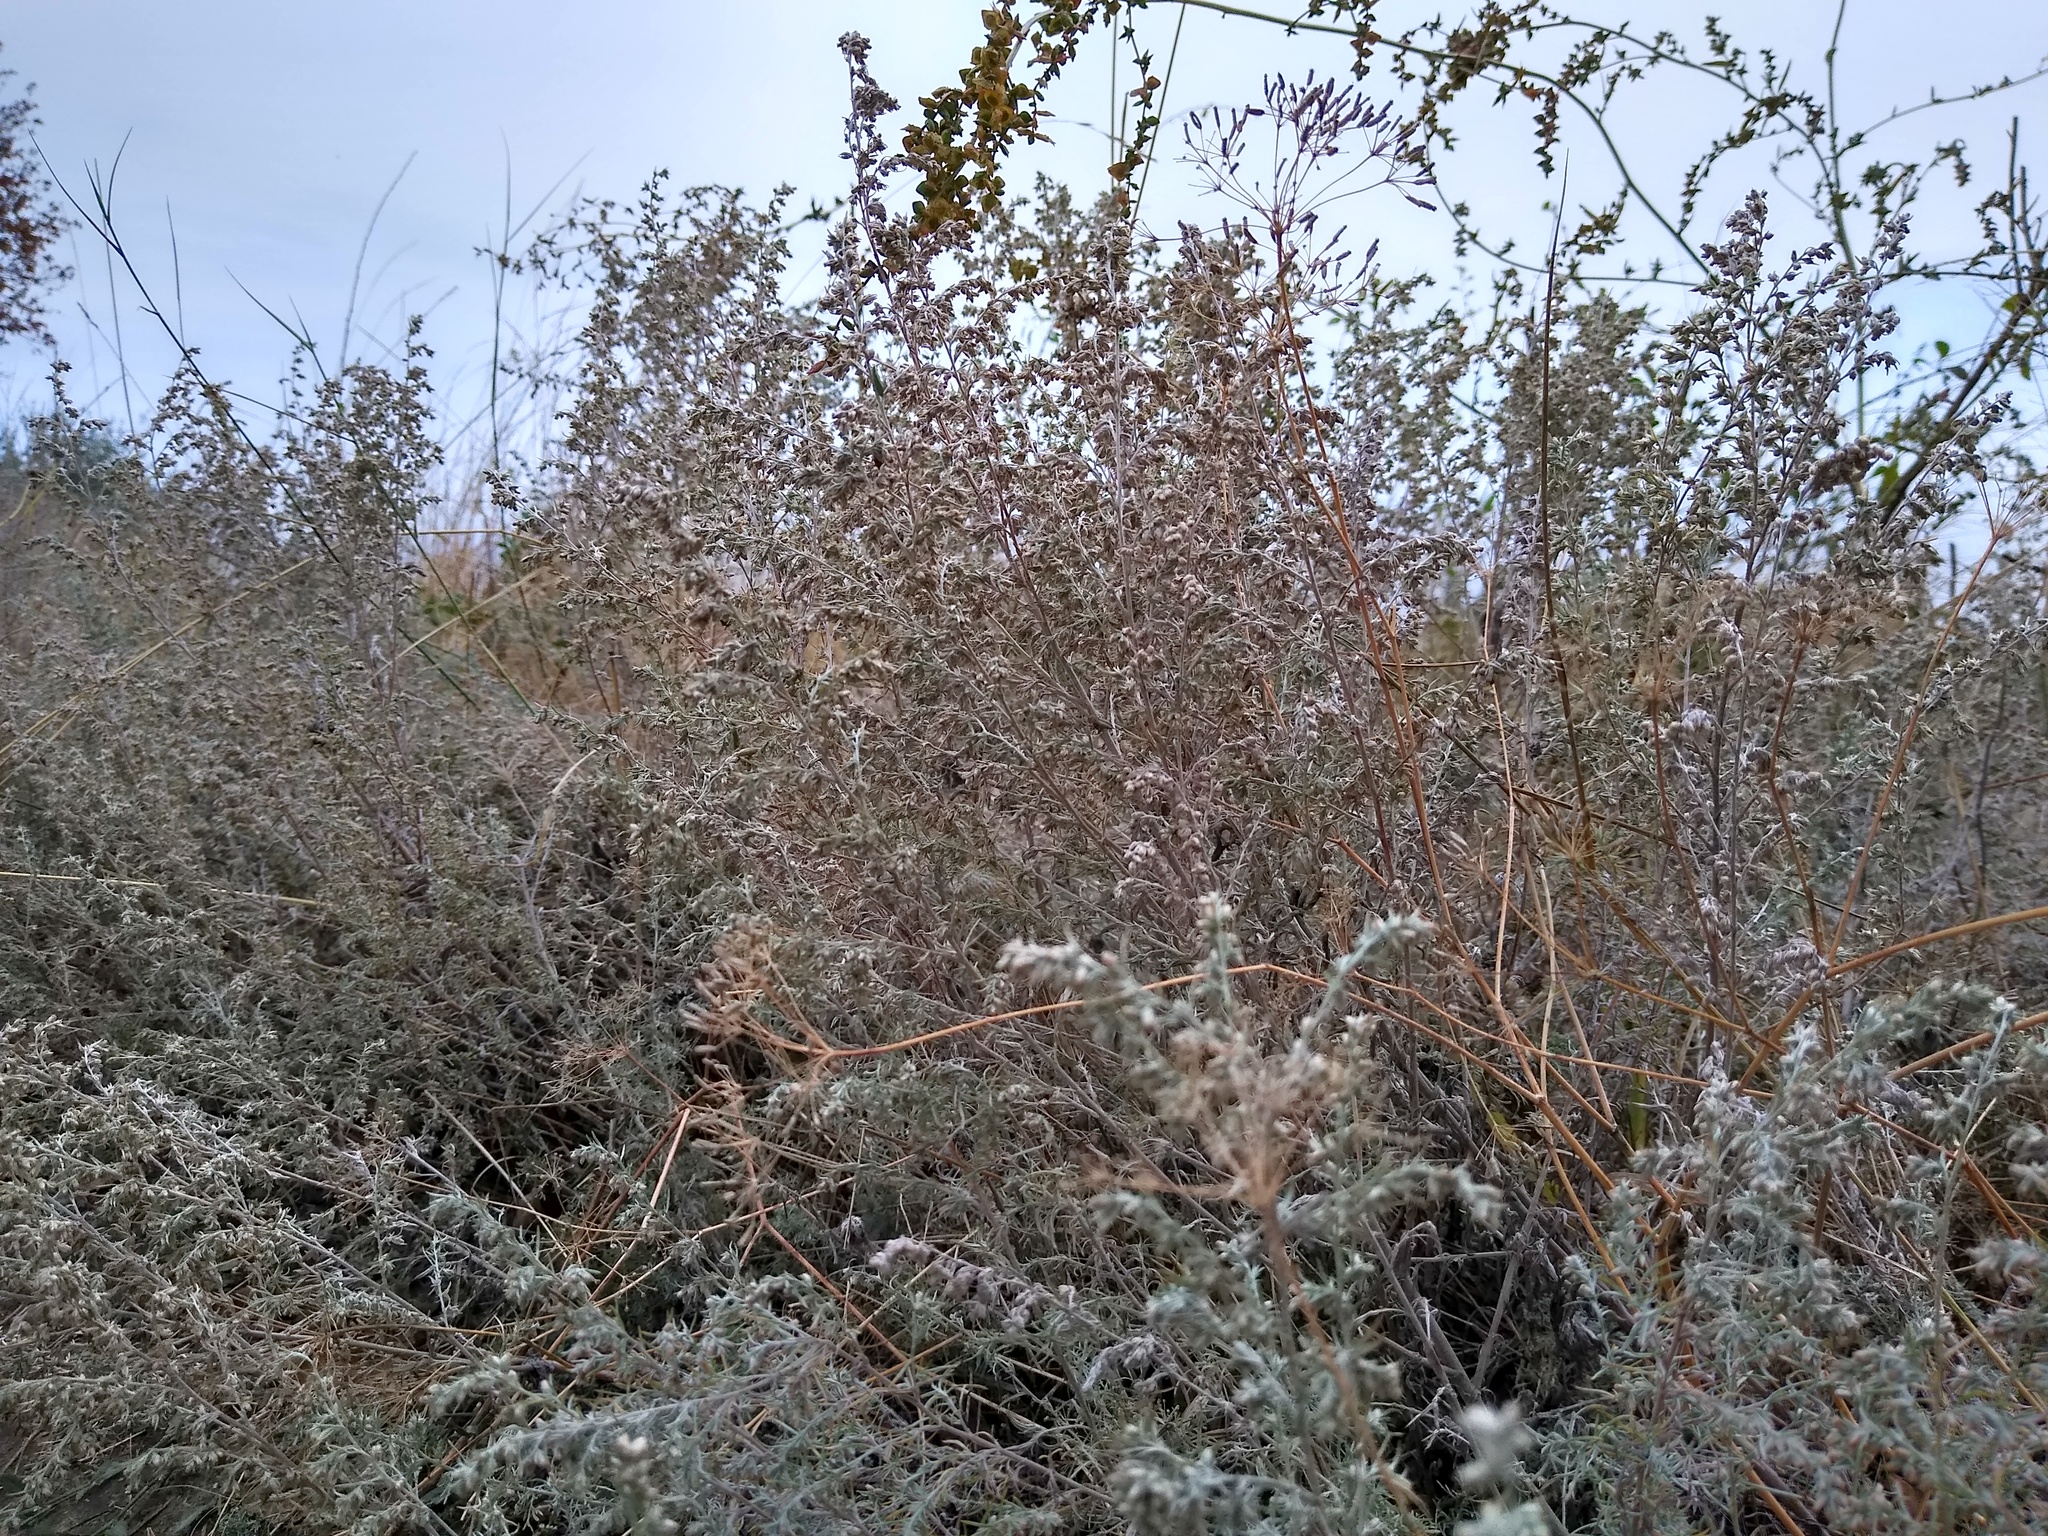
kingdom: Plantae
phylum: Tracheophyta
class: Magnoliopsida
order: Asterales
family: Asteraceae
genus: Artemisia
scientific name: Artemisia austriaca
